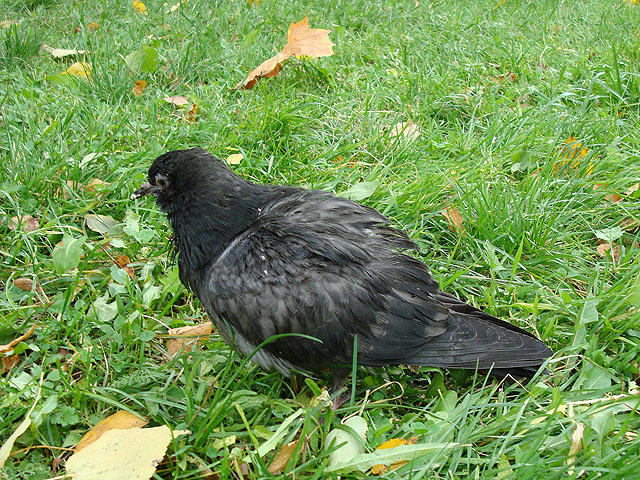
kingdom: Animalia
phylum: Chordata
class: Aves
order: Columbiformes
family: Columbidae
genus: Columba
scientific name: Columba livia
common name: Rock pigeon
